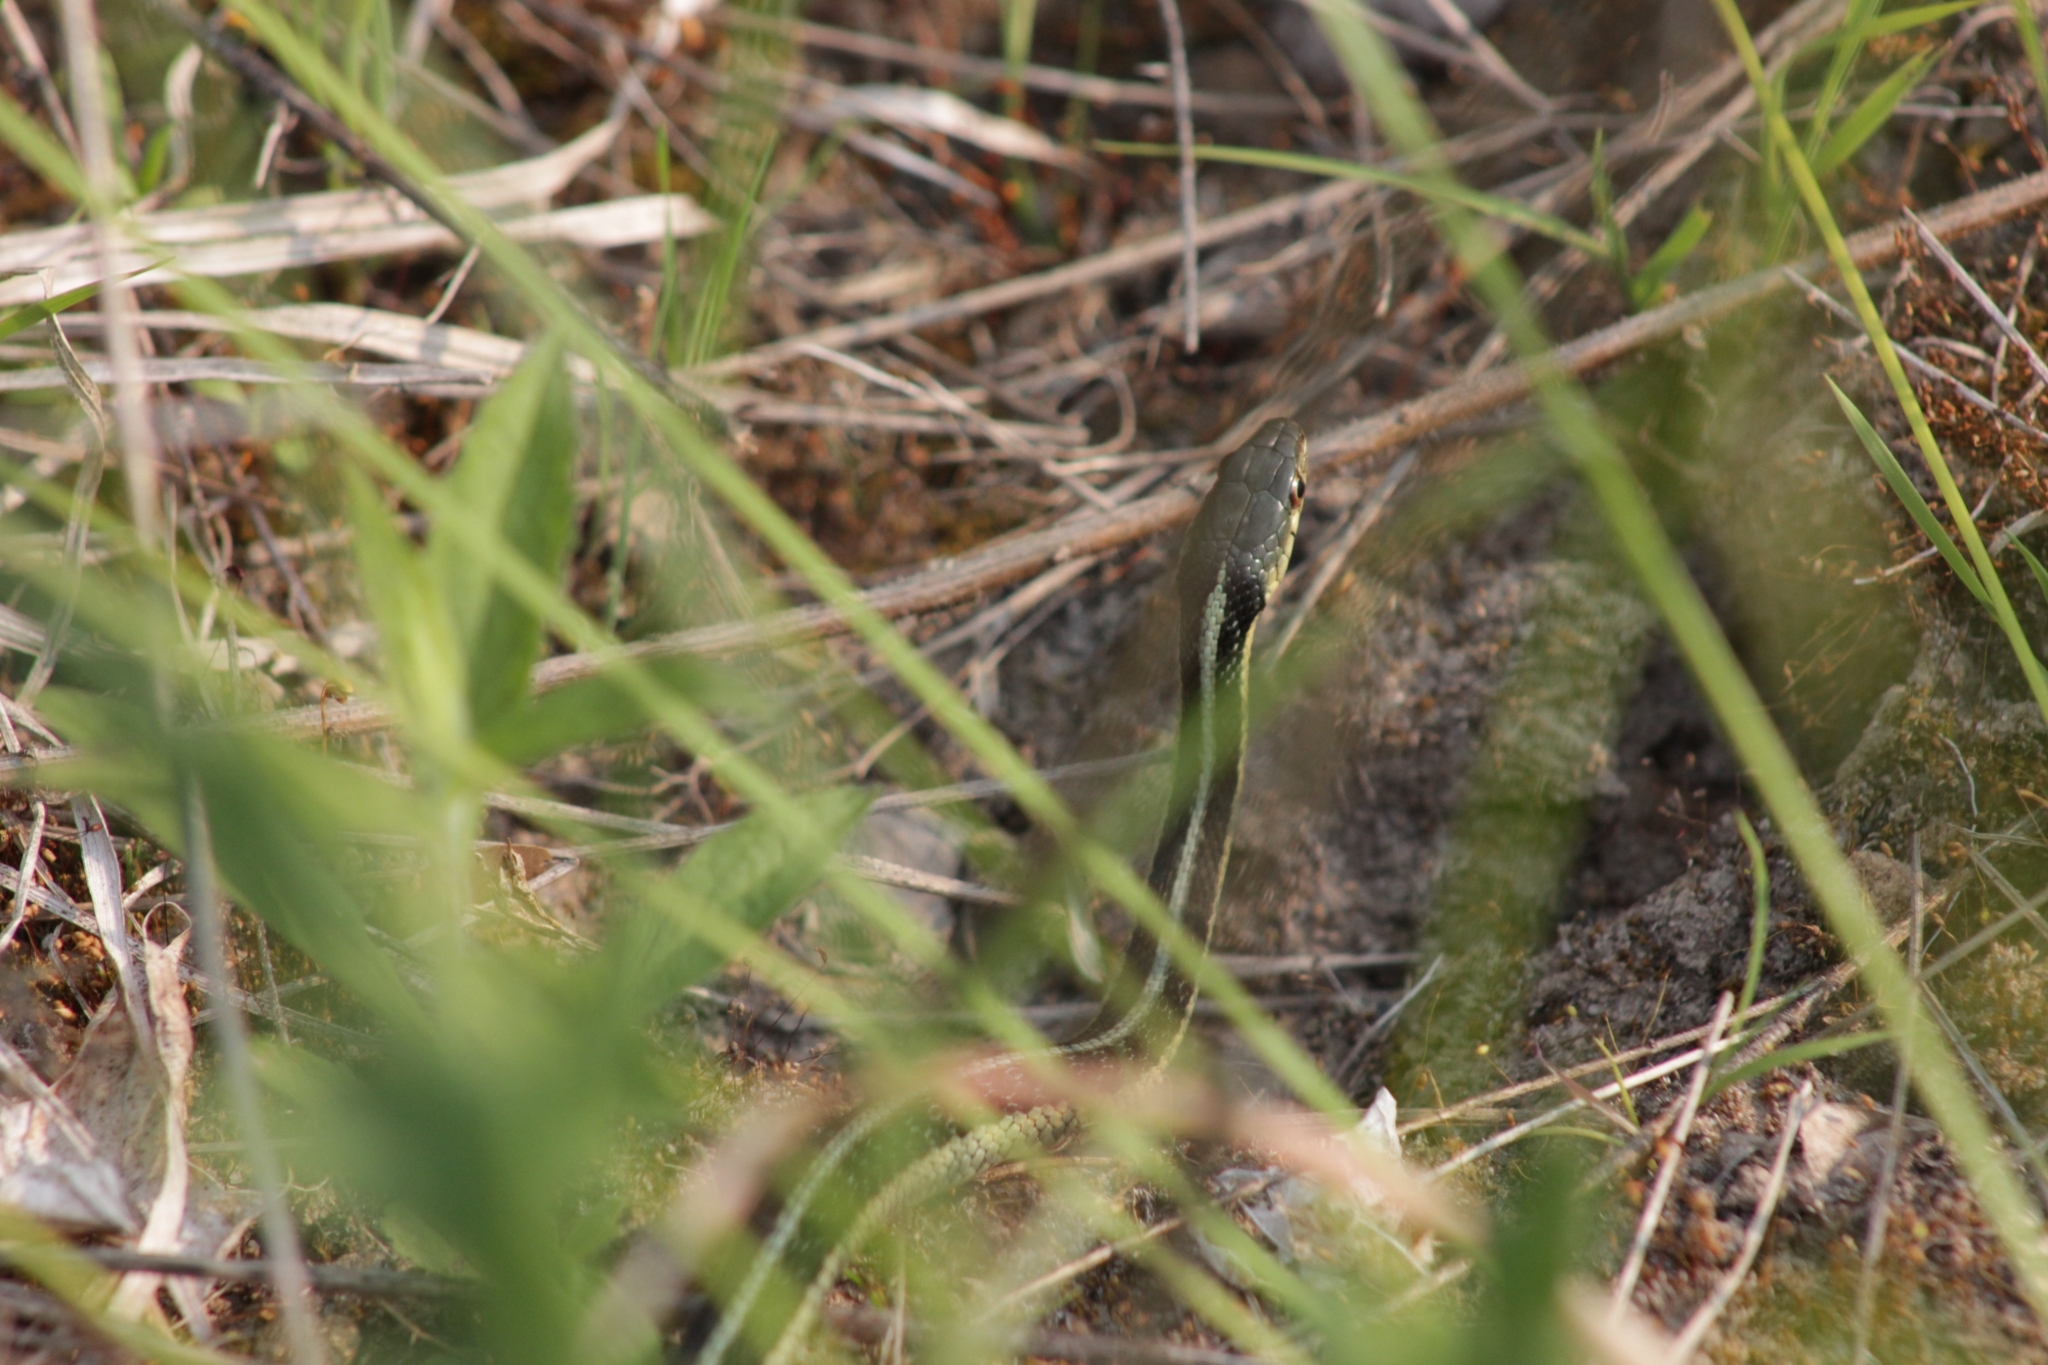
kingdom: Animalia
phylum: Chordata
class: Squamata
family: Colubridae
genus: Thamnophis
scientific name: Thamnophis sirtalis
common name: Common garter snake
